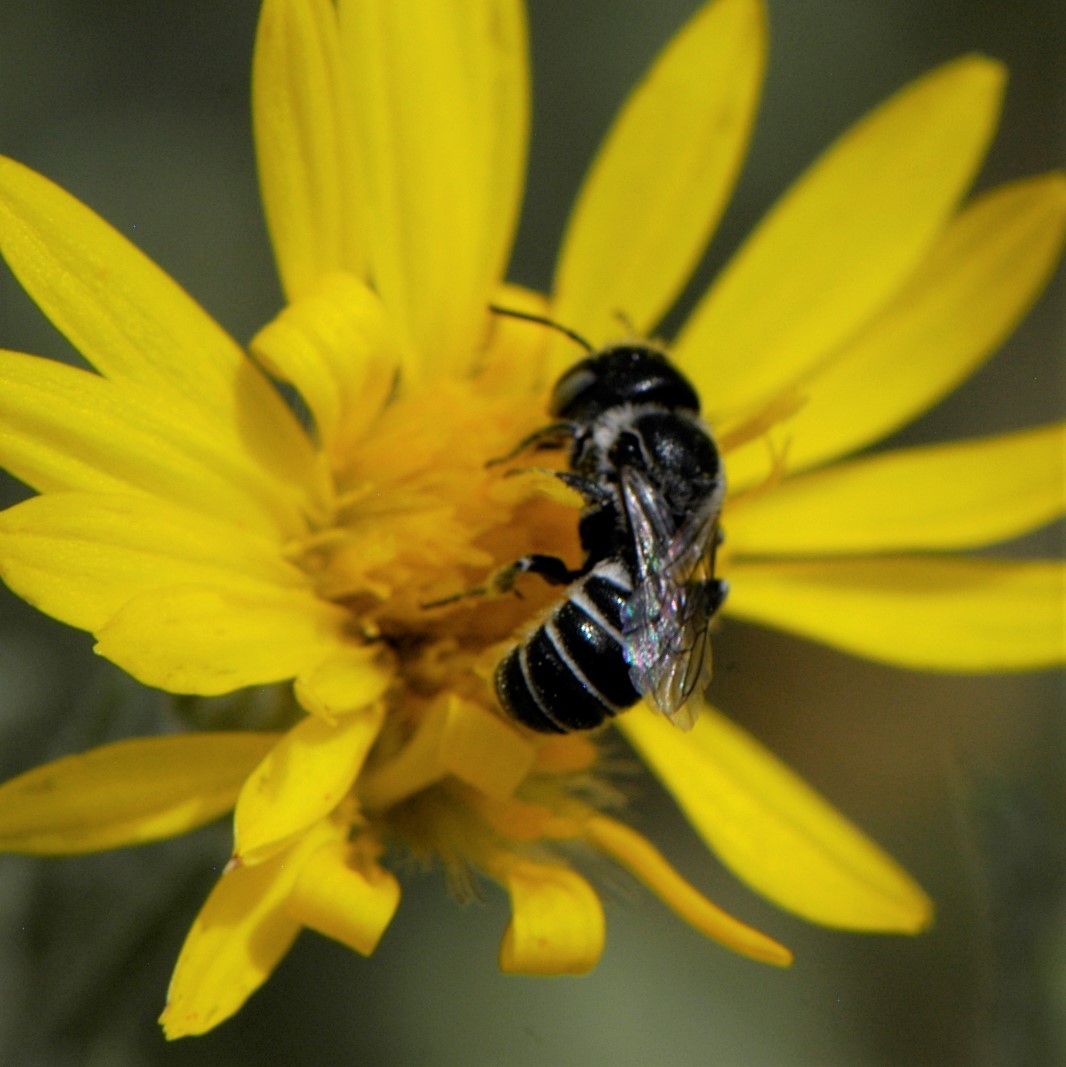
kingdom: Animalia
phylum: Arthropoda
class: Insecta
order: Hymenoptera
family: Megachilidae
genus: Ashmeadiella
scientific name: Ashmeadiella
